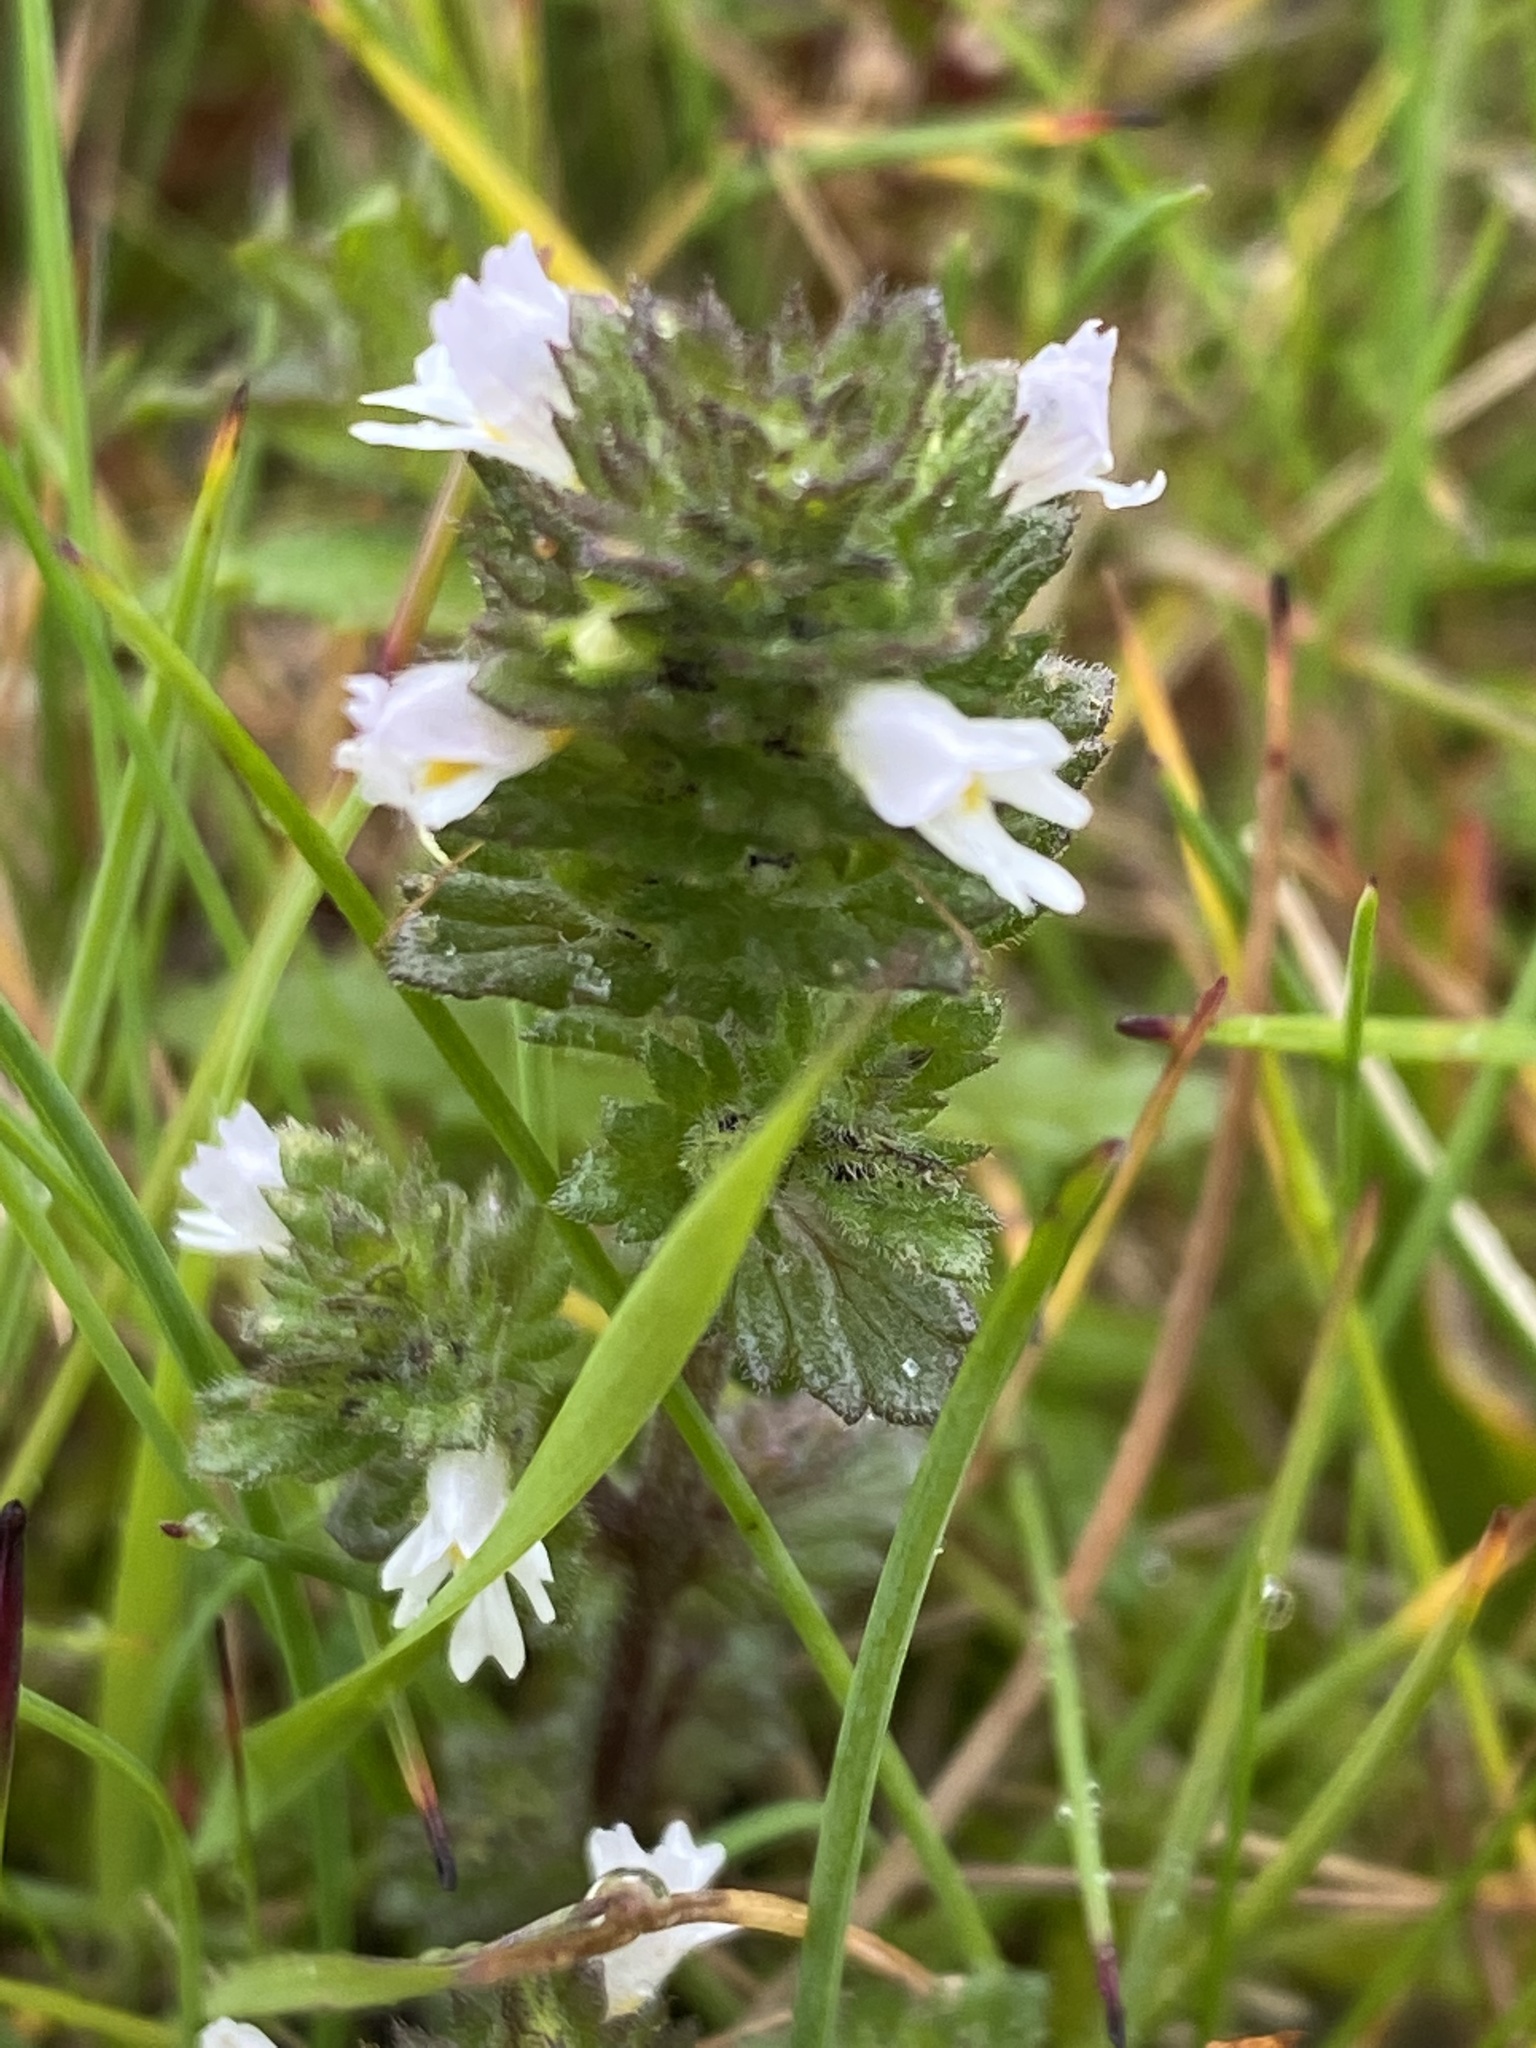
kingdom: Plantae
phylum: Tracheophyta
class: Magnoliopsida
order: Lamiales
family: Orobanchaceae
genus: Euphrasia
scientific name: Euphrasia frigida
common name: An eyebright
